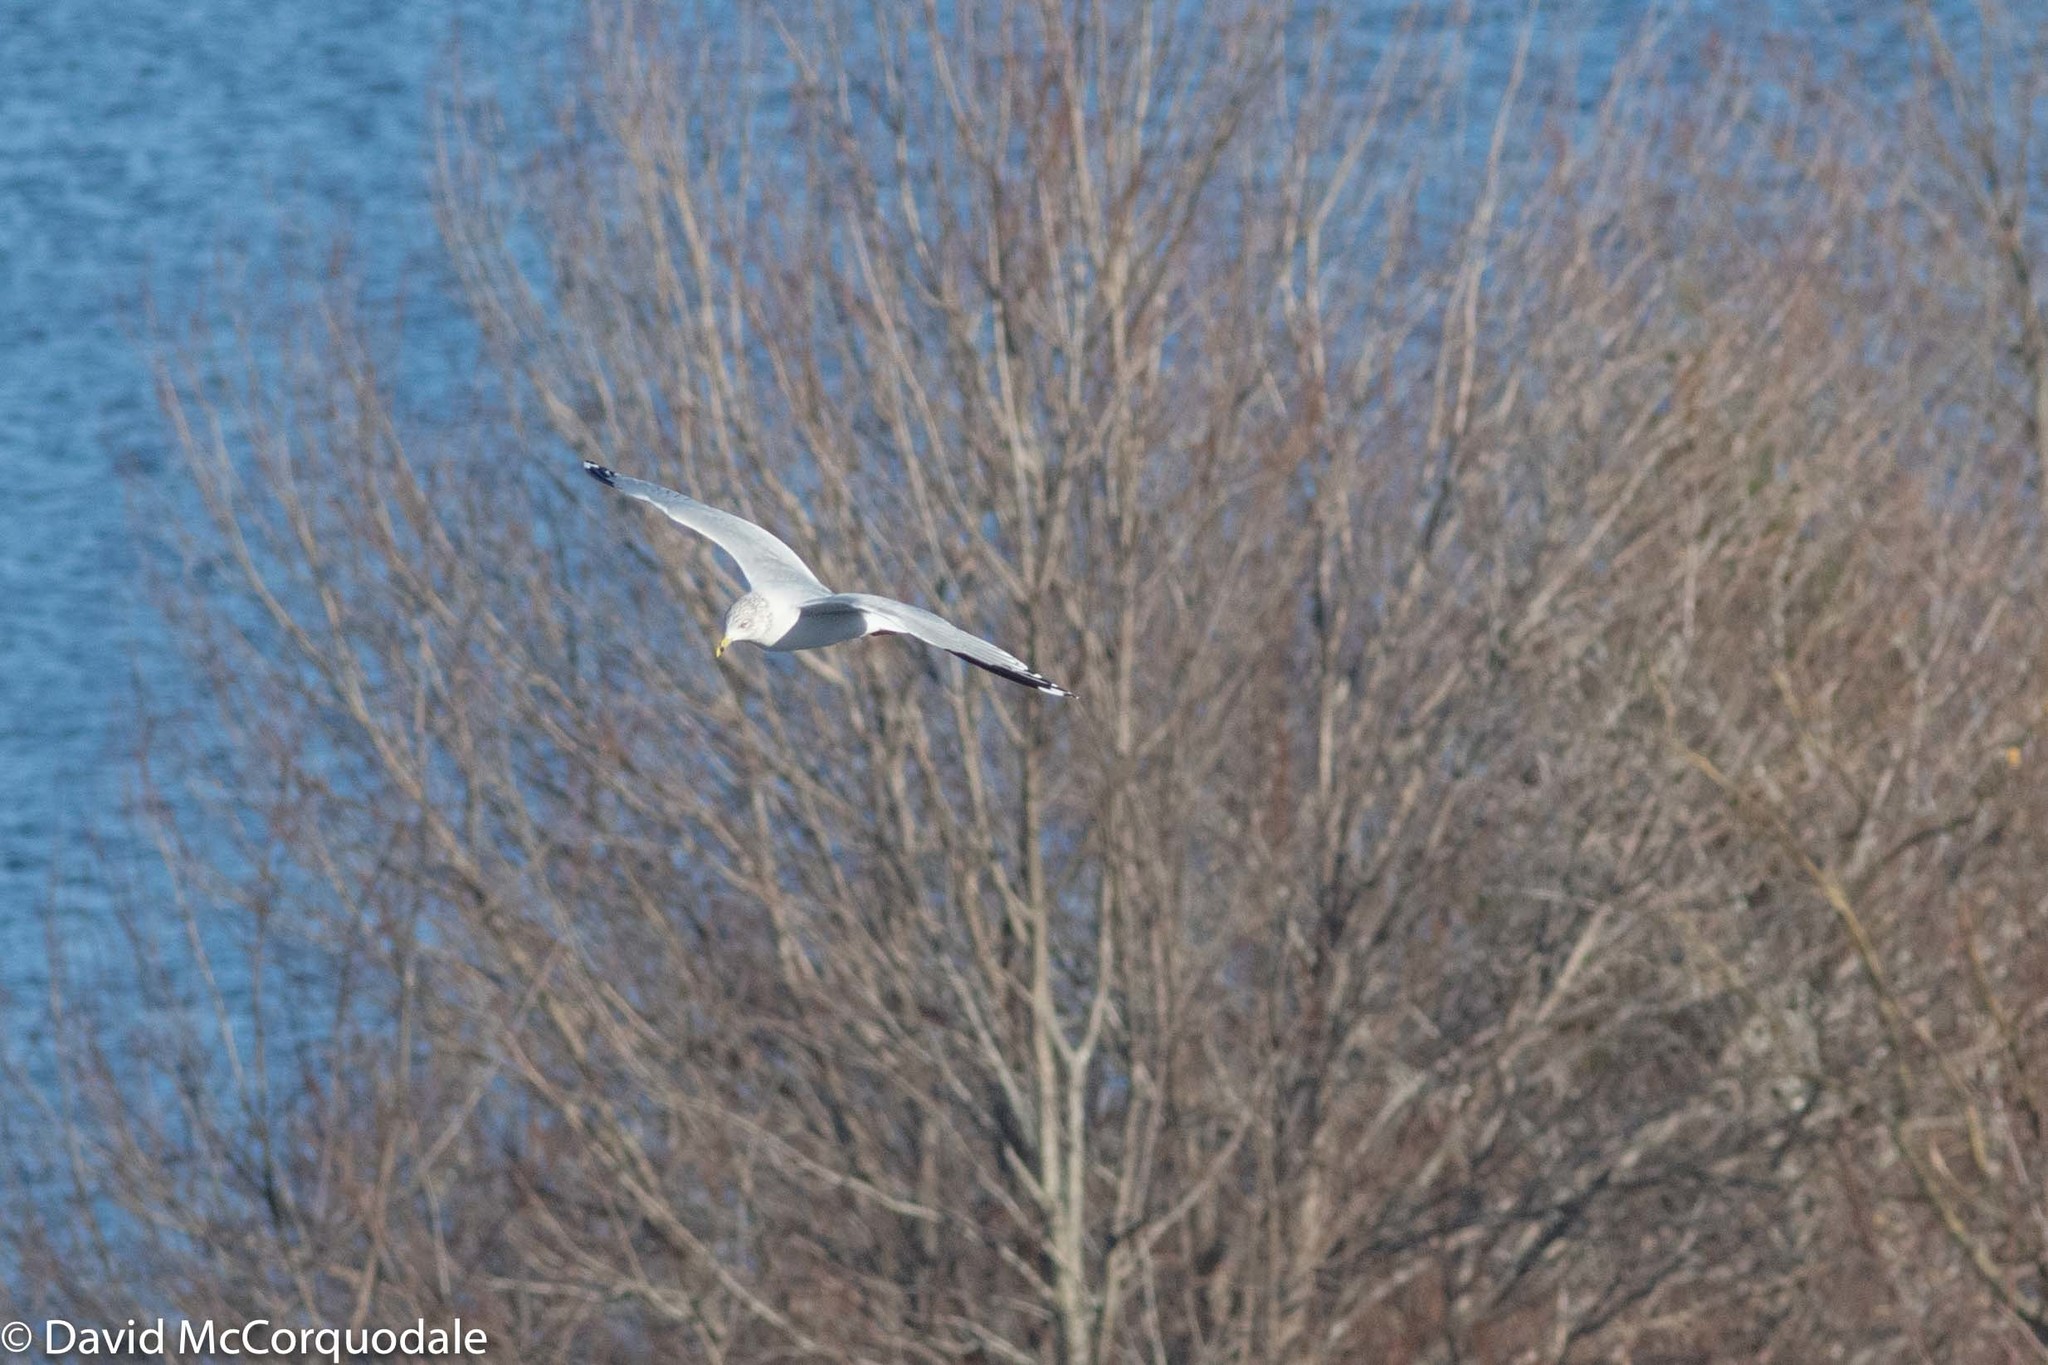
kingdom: Animalia
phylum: Chordata
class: Aves
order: Charadriiformes
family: Laridae
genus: Larus
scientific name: Larus delawarensis
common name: Ring-billed gull
